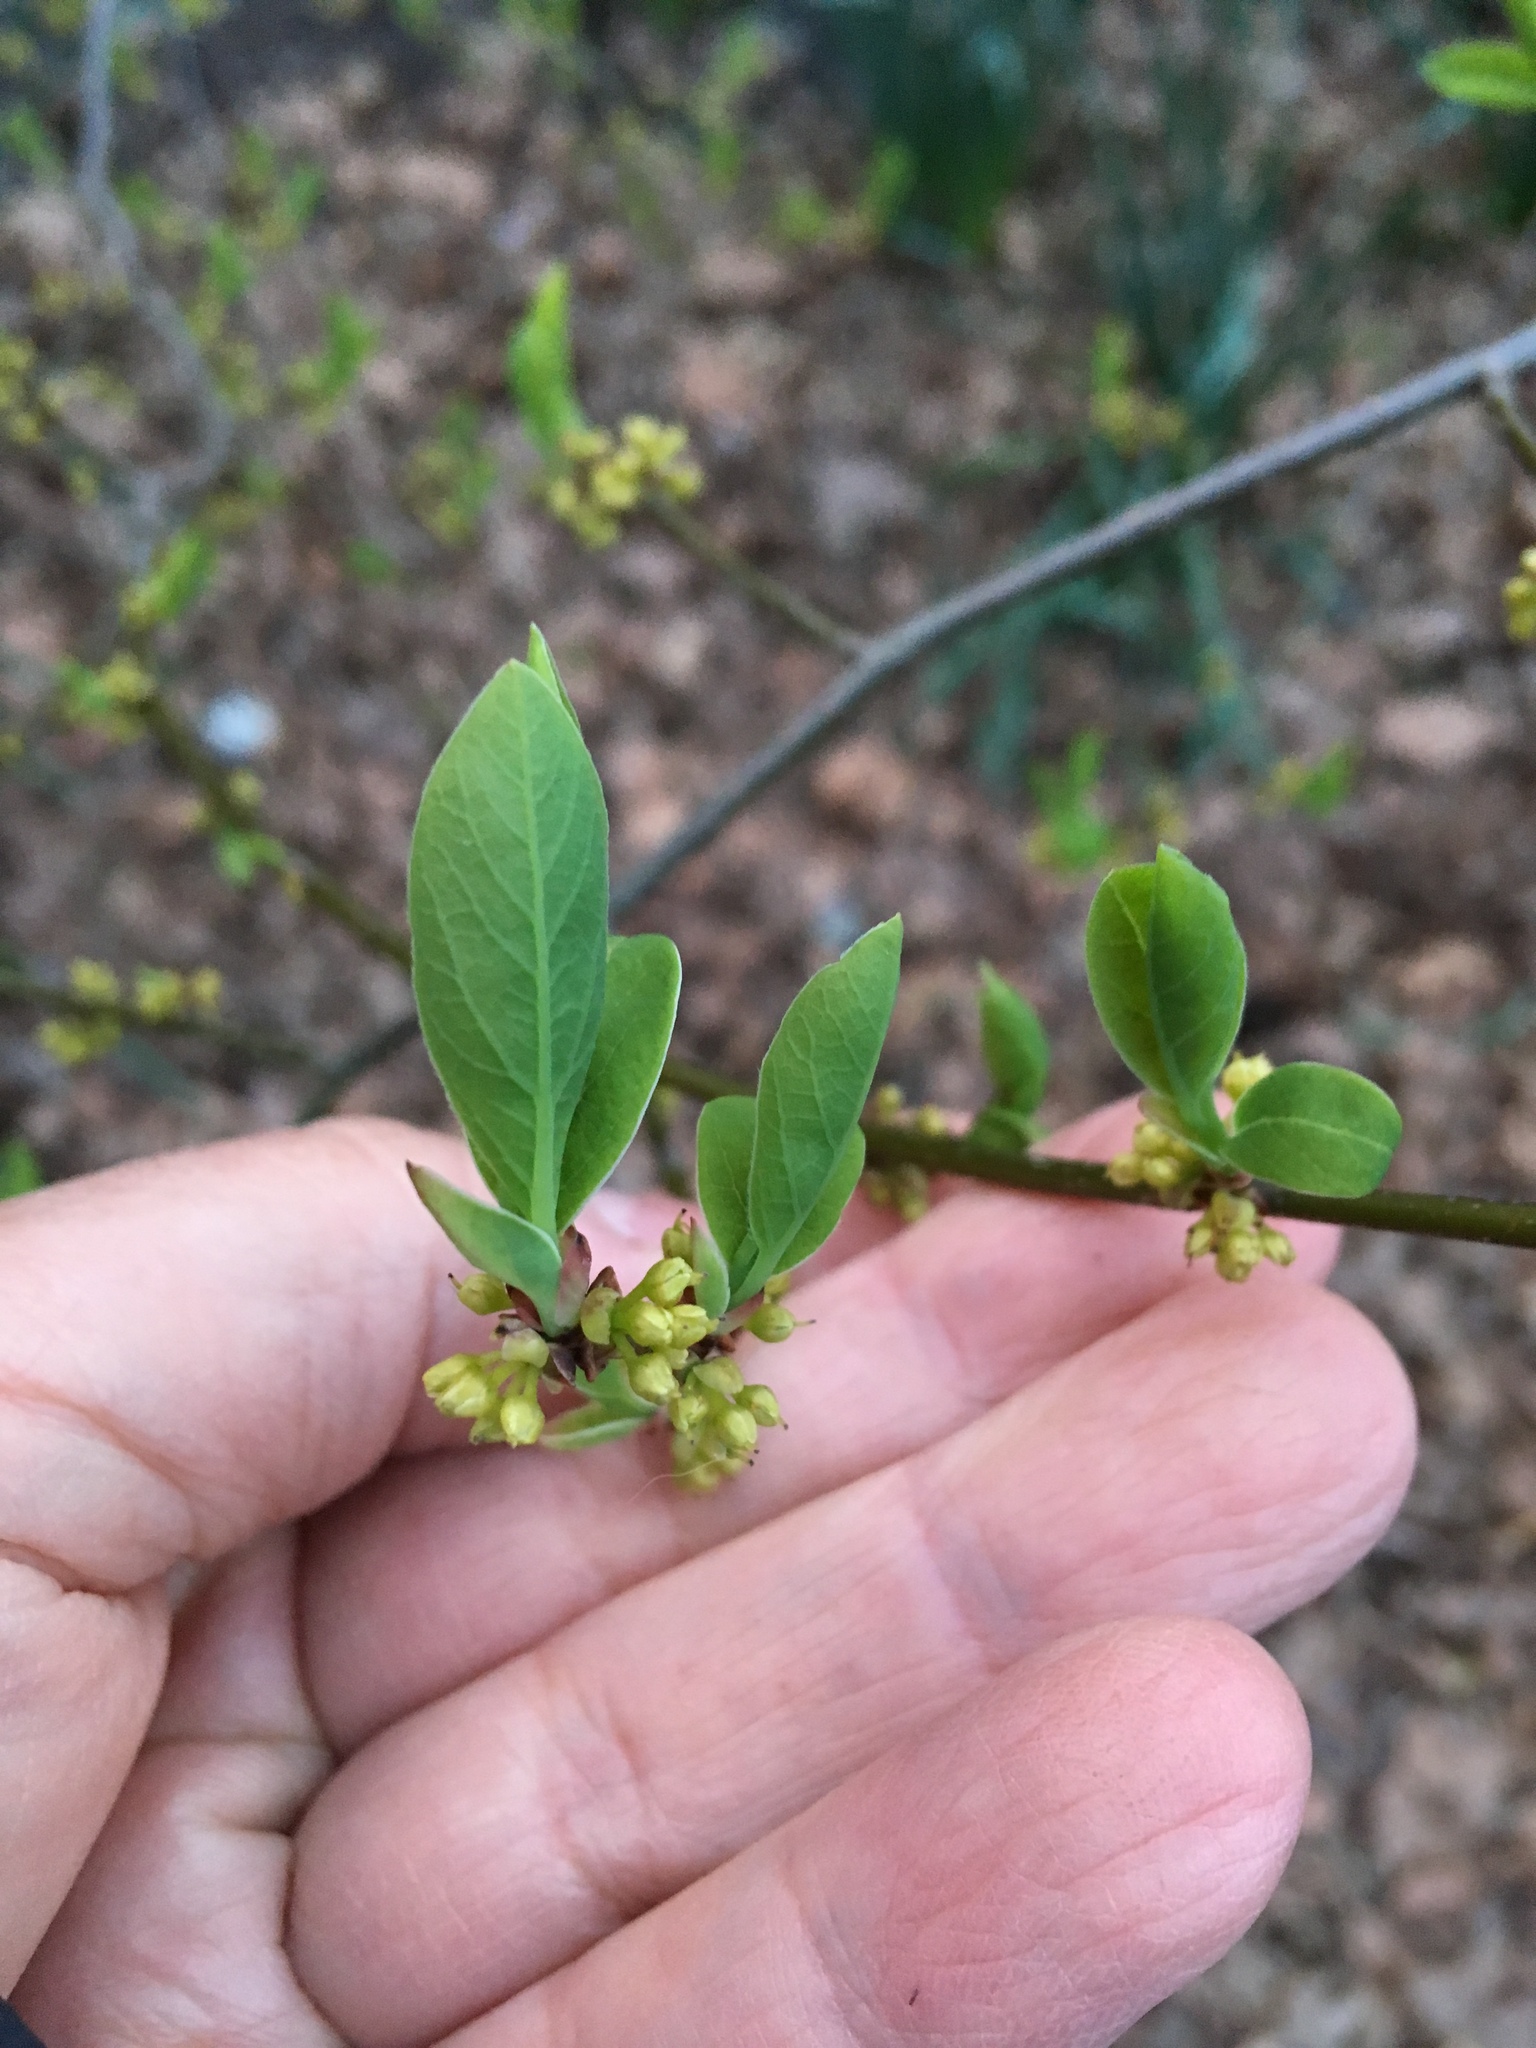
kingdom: Plantae
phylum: Tracheophyta
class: Magnoliopsida
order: Laurales
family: Lauraceae
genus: Lindera
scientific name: Lindera benzoin
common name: Spicebush
